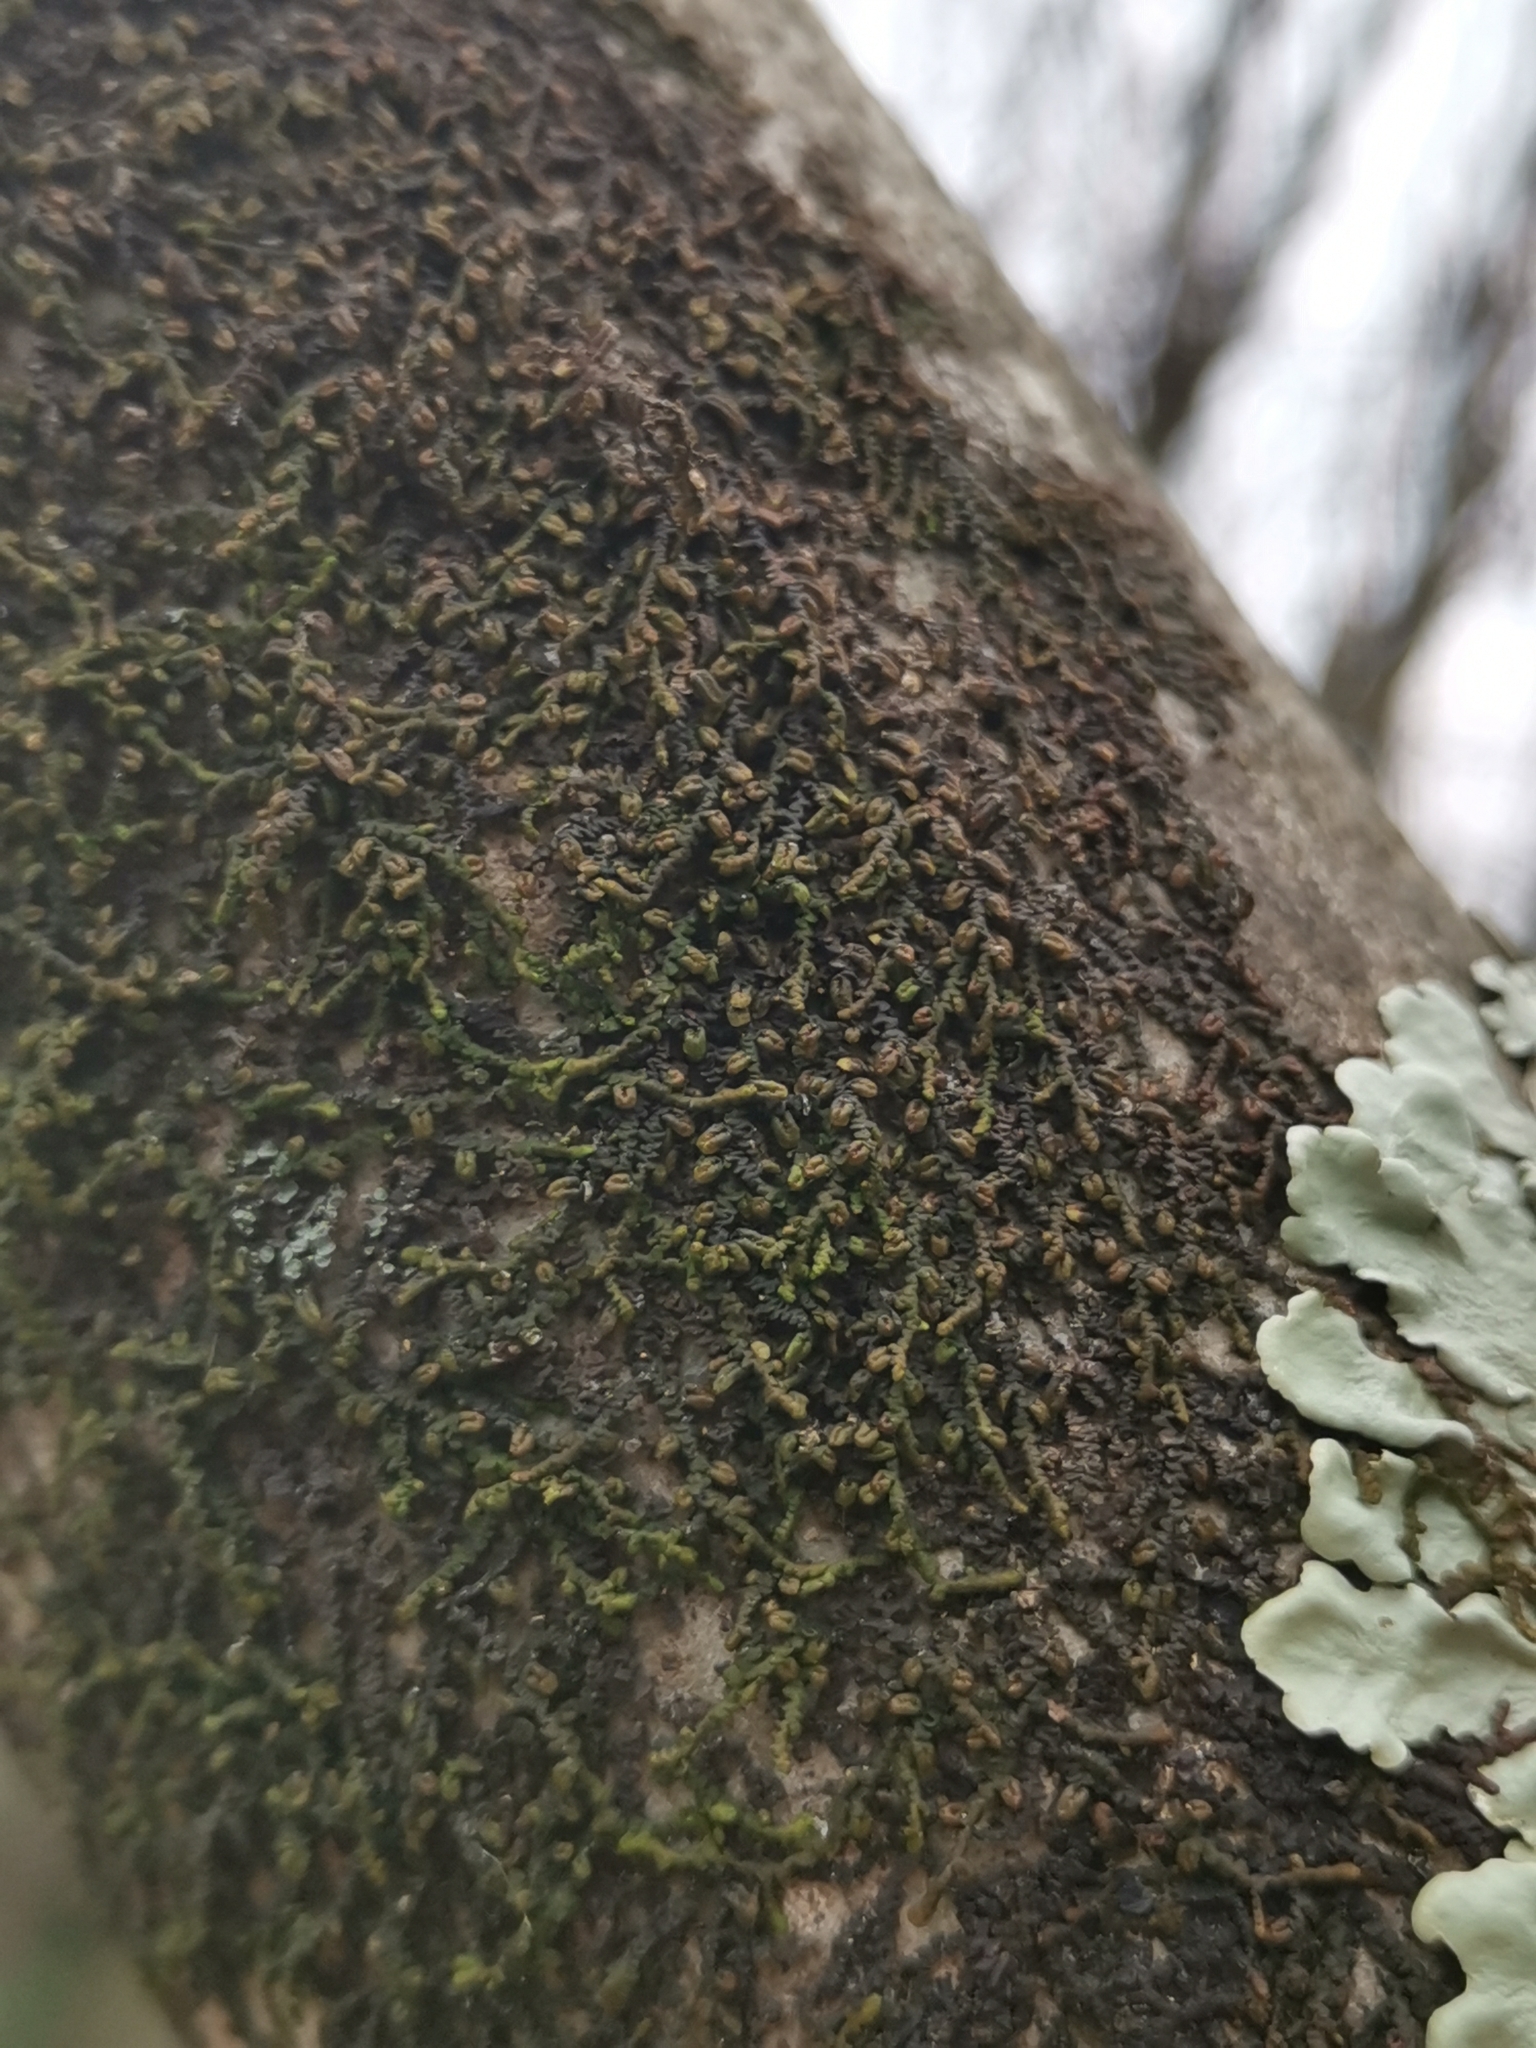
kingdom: Plantae
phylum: Marchantiophyta
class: Jungermanniopsida
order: Porellales
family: Frullaniaceae
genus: Frullania
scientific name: Frullania dilatata
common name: Dilated scalewort
